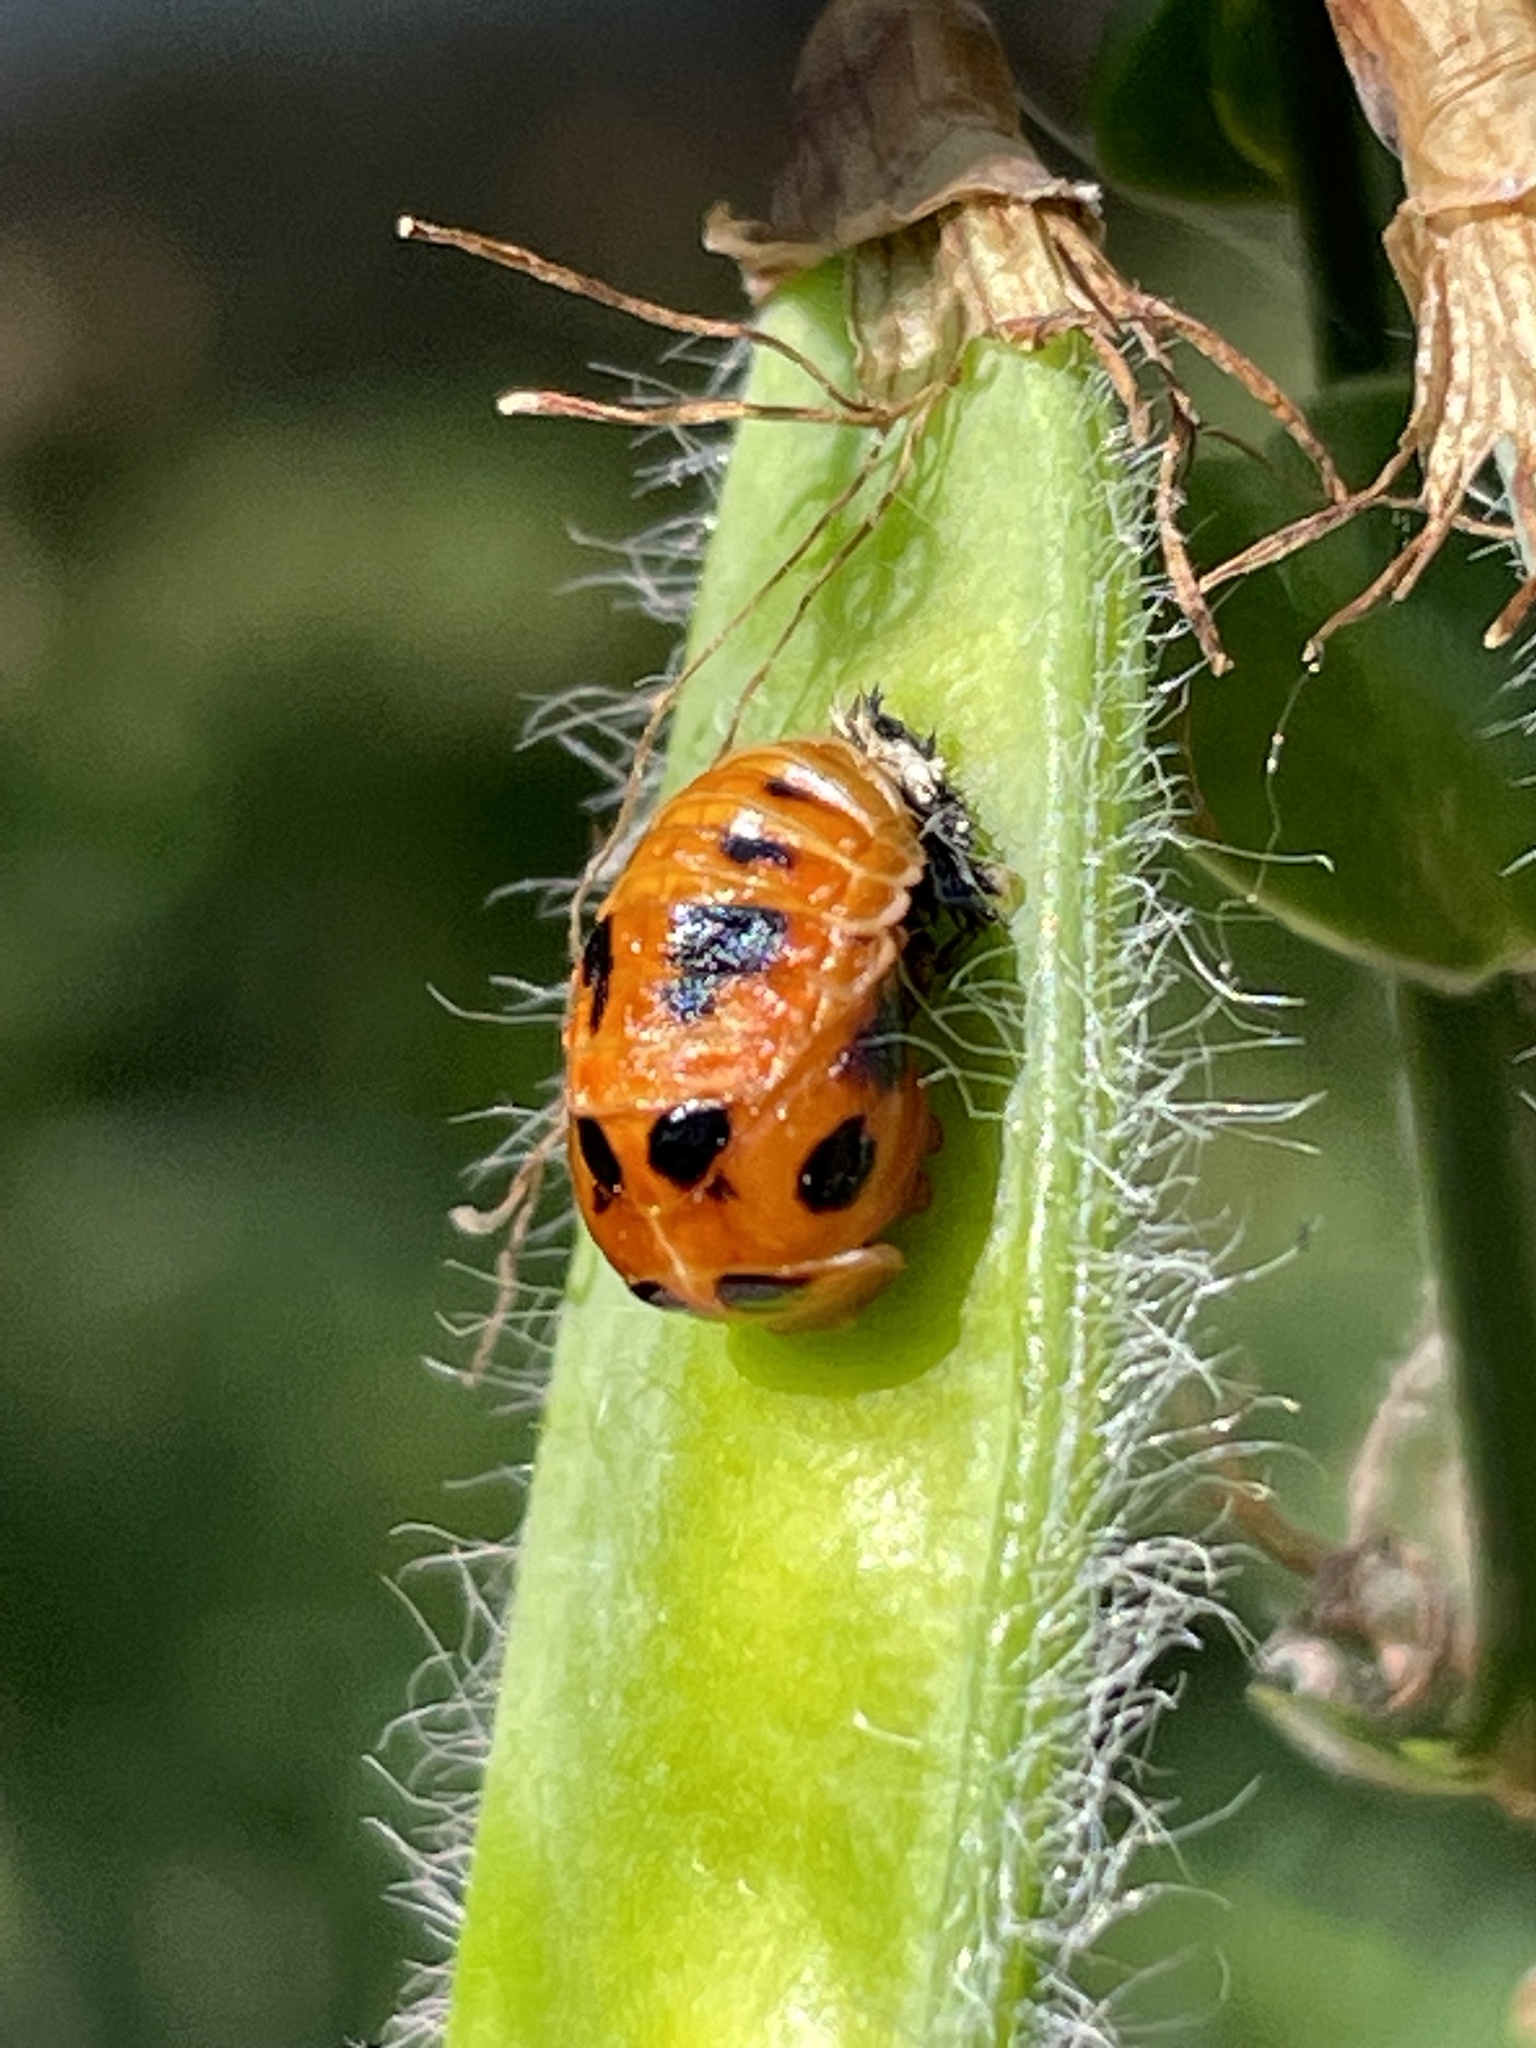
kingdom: Animalia
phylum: Arthropoda
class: Insecta
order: Coleoptera
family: Coccinellidae
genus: Harmonia
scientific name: Harmonia axyridis
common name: Harlequin ladybird
